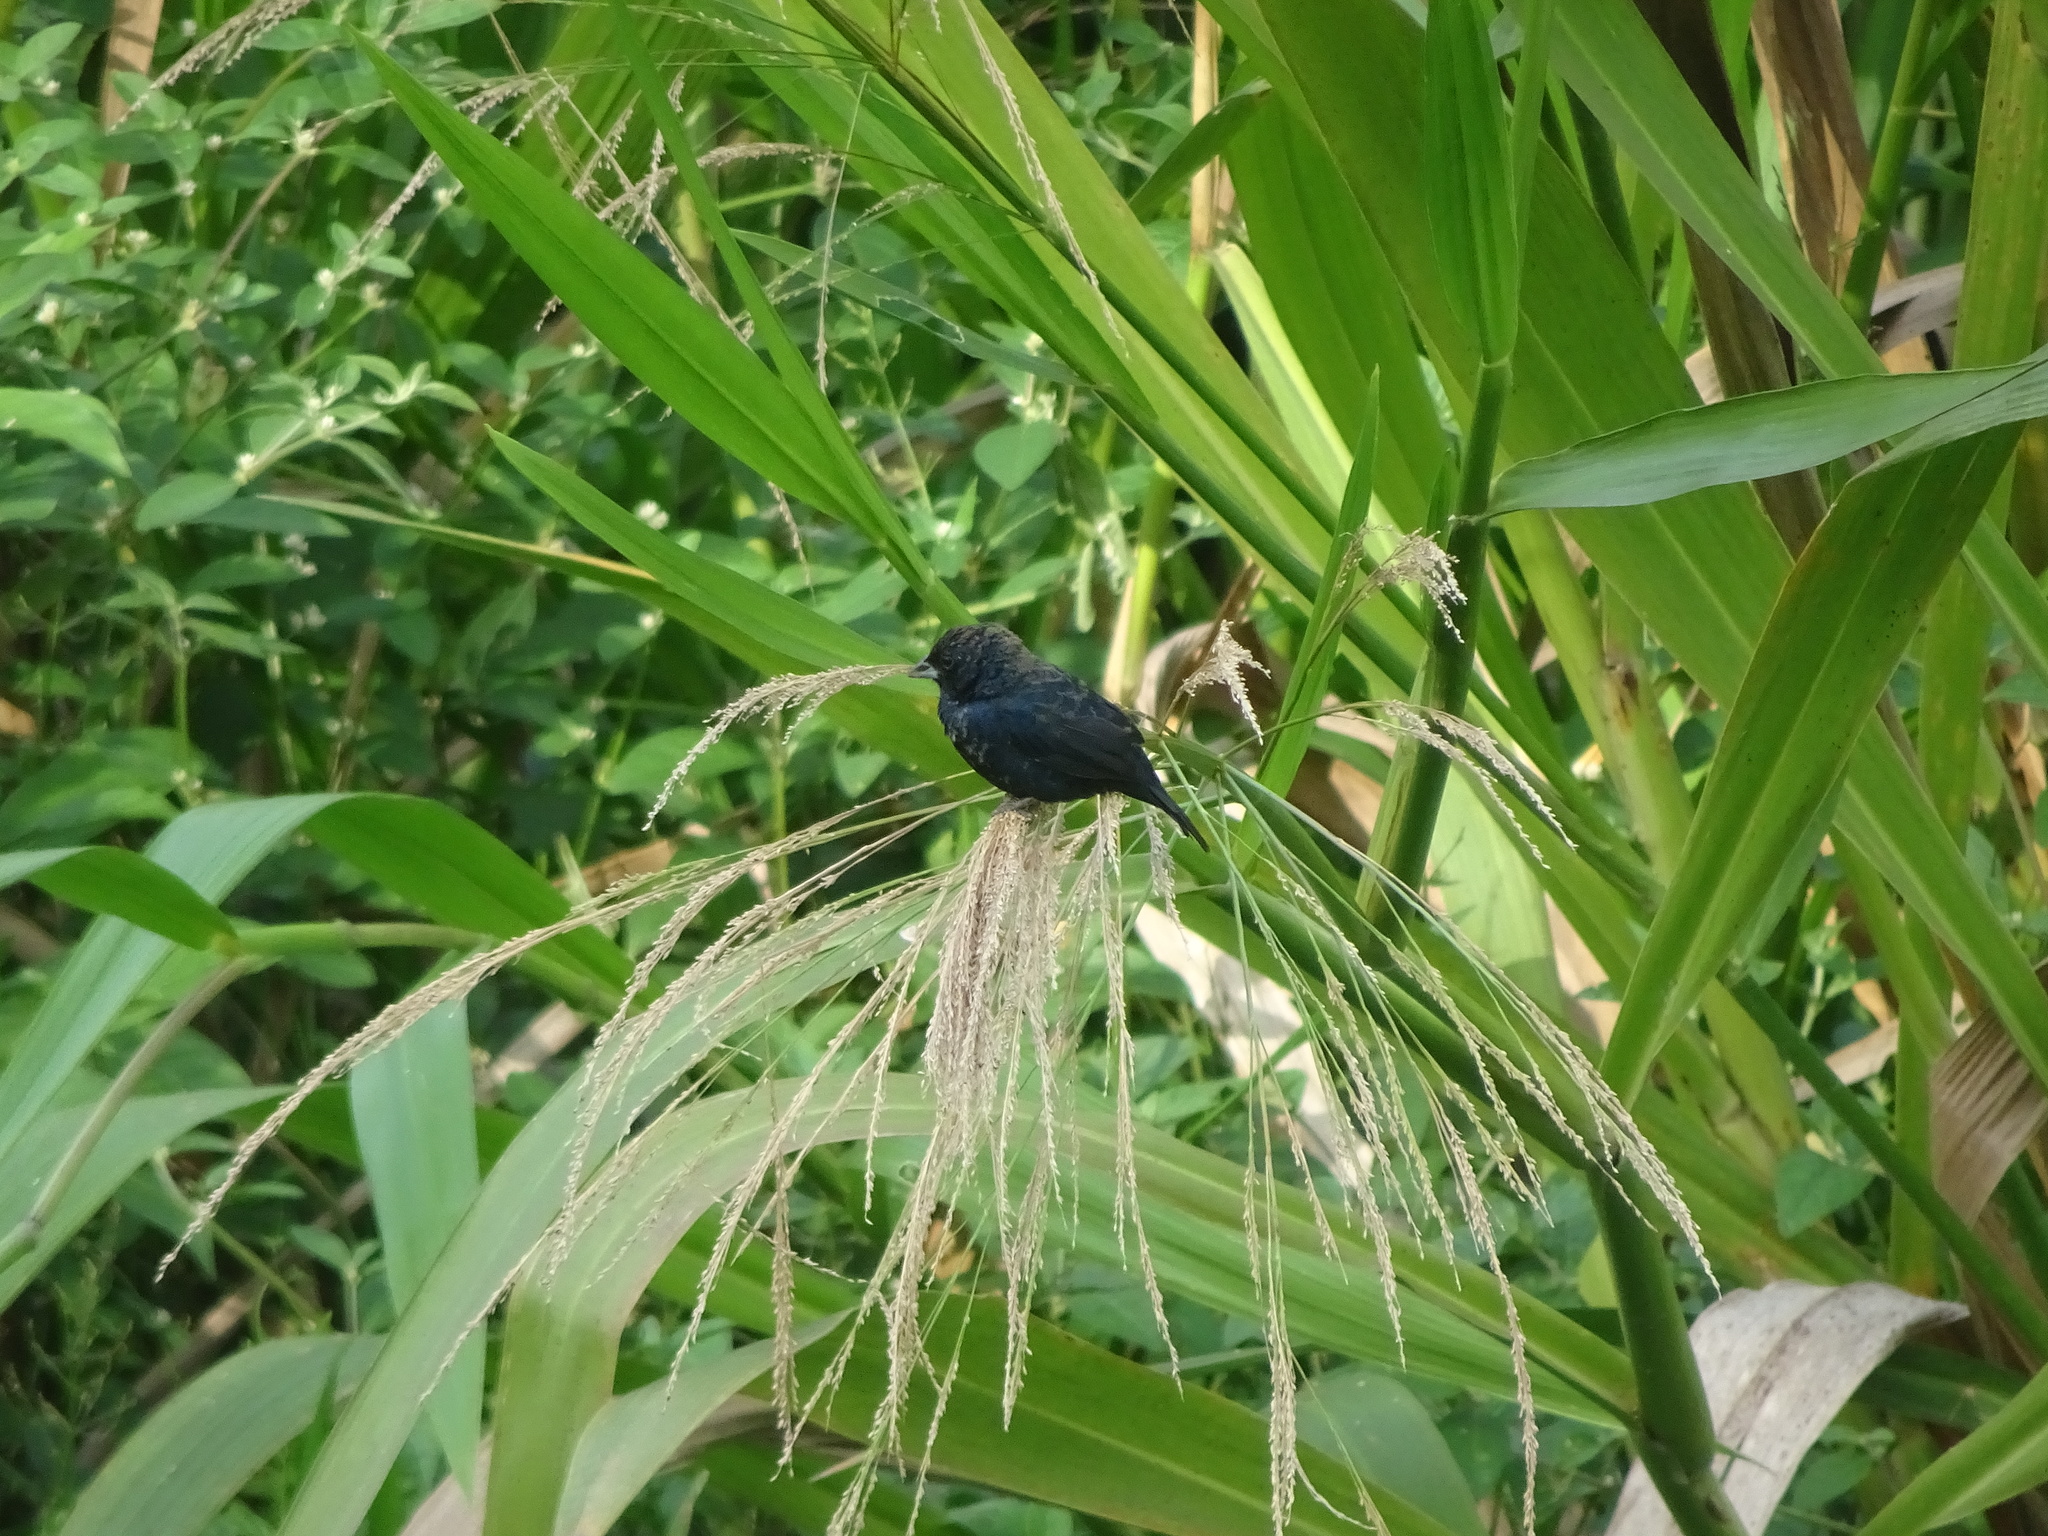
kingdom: Animalia
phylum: Chordata
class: Aves
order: Passeriformes
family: Thraupidae
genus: Volatinia
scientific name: Volatinia jacarina
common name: Blue-black grassquit
